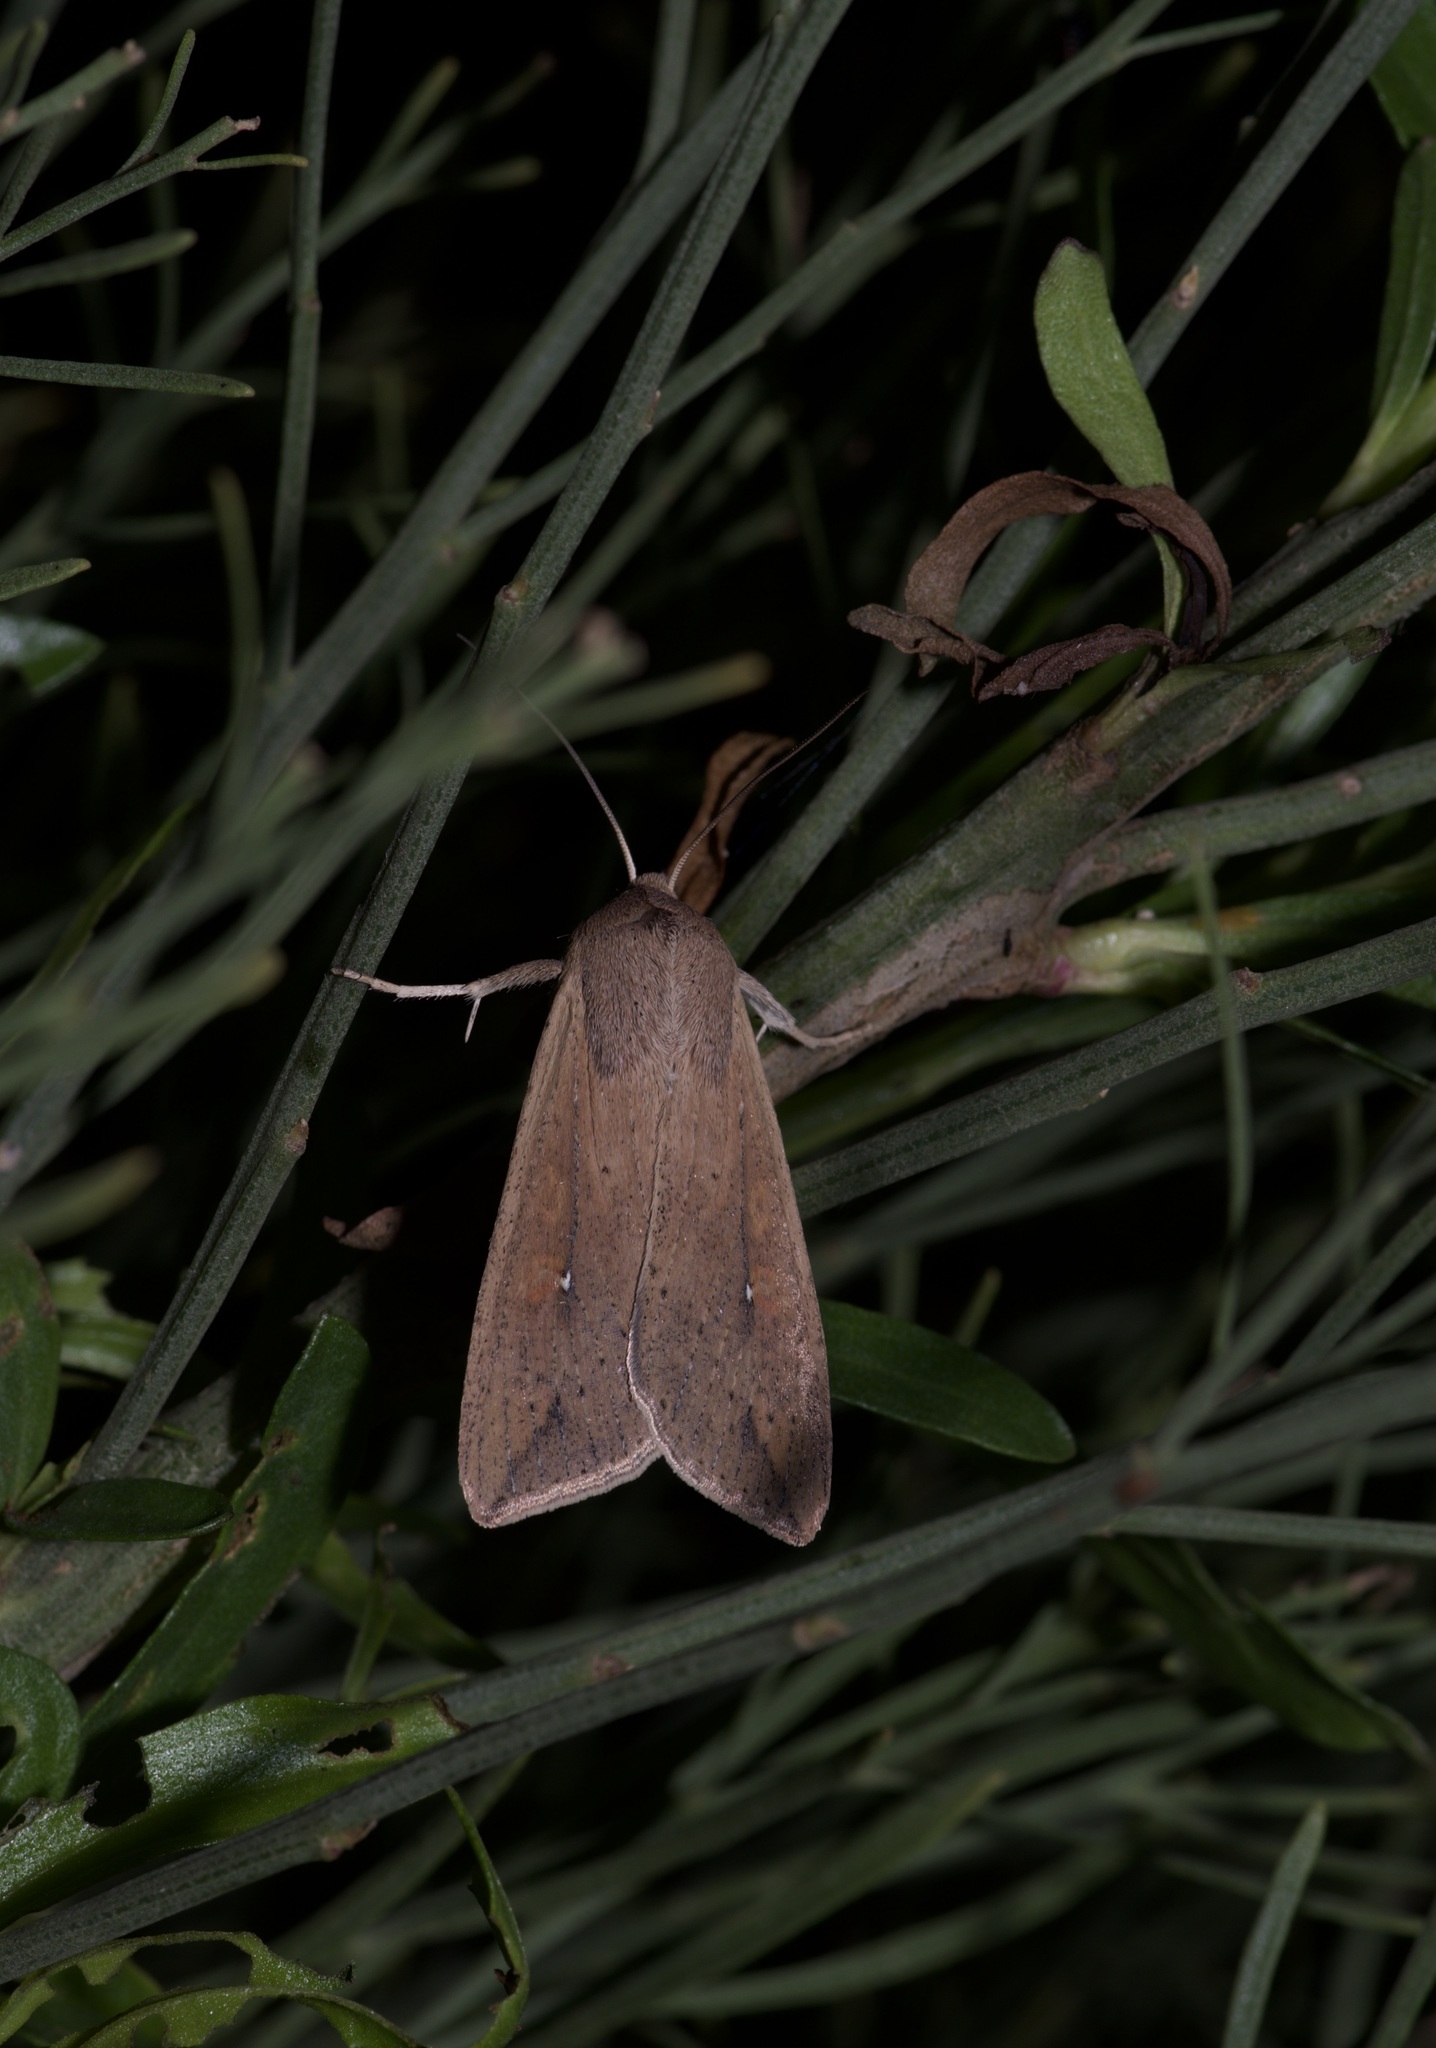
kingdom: Animalia
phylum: Arthropoda
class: Insecta
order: Lepidoptera
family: Noctuidae
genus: Mythimna
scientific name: Mythimna unipuncta
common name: White-speck
